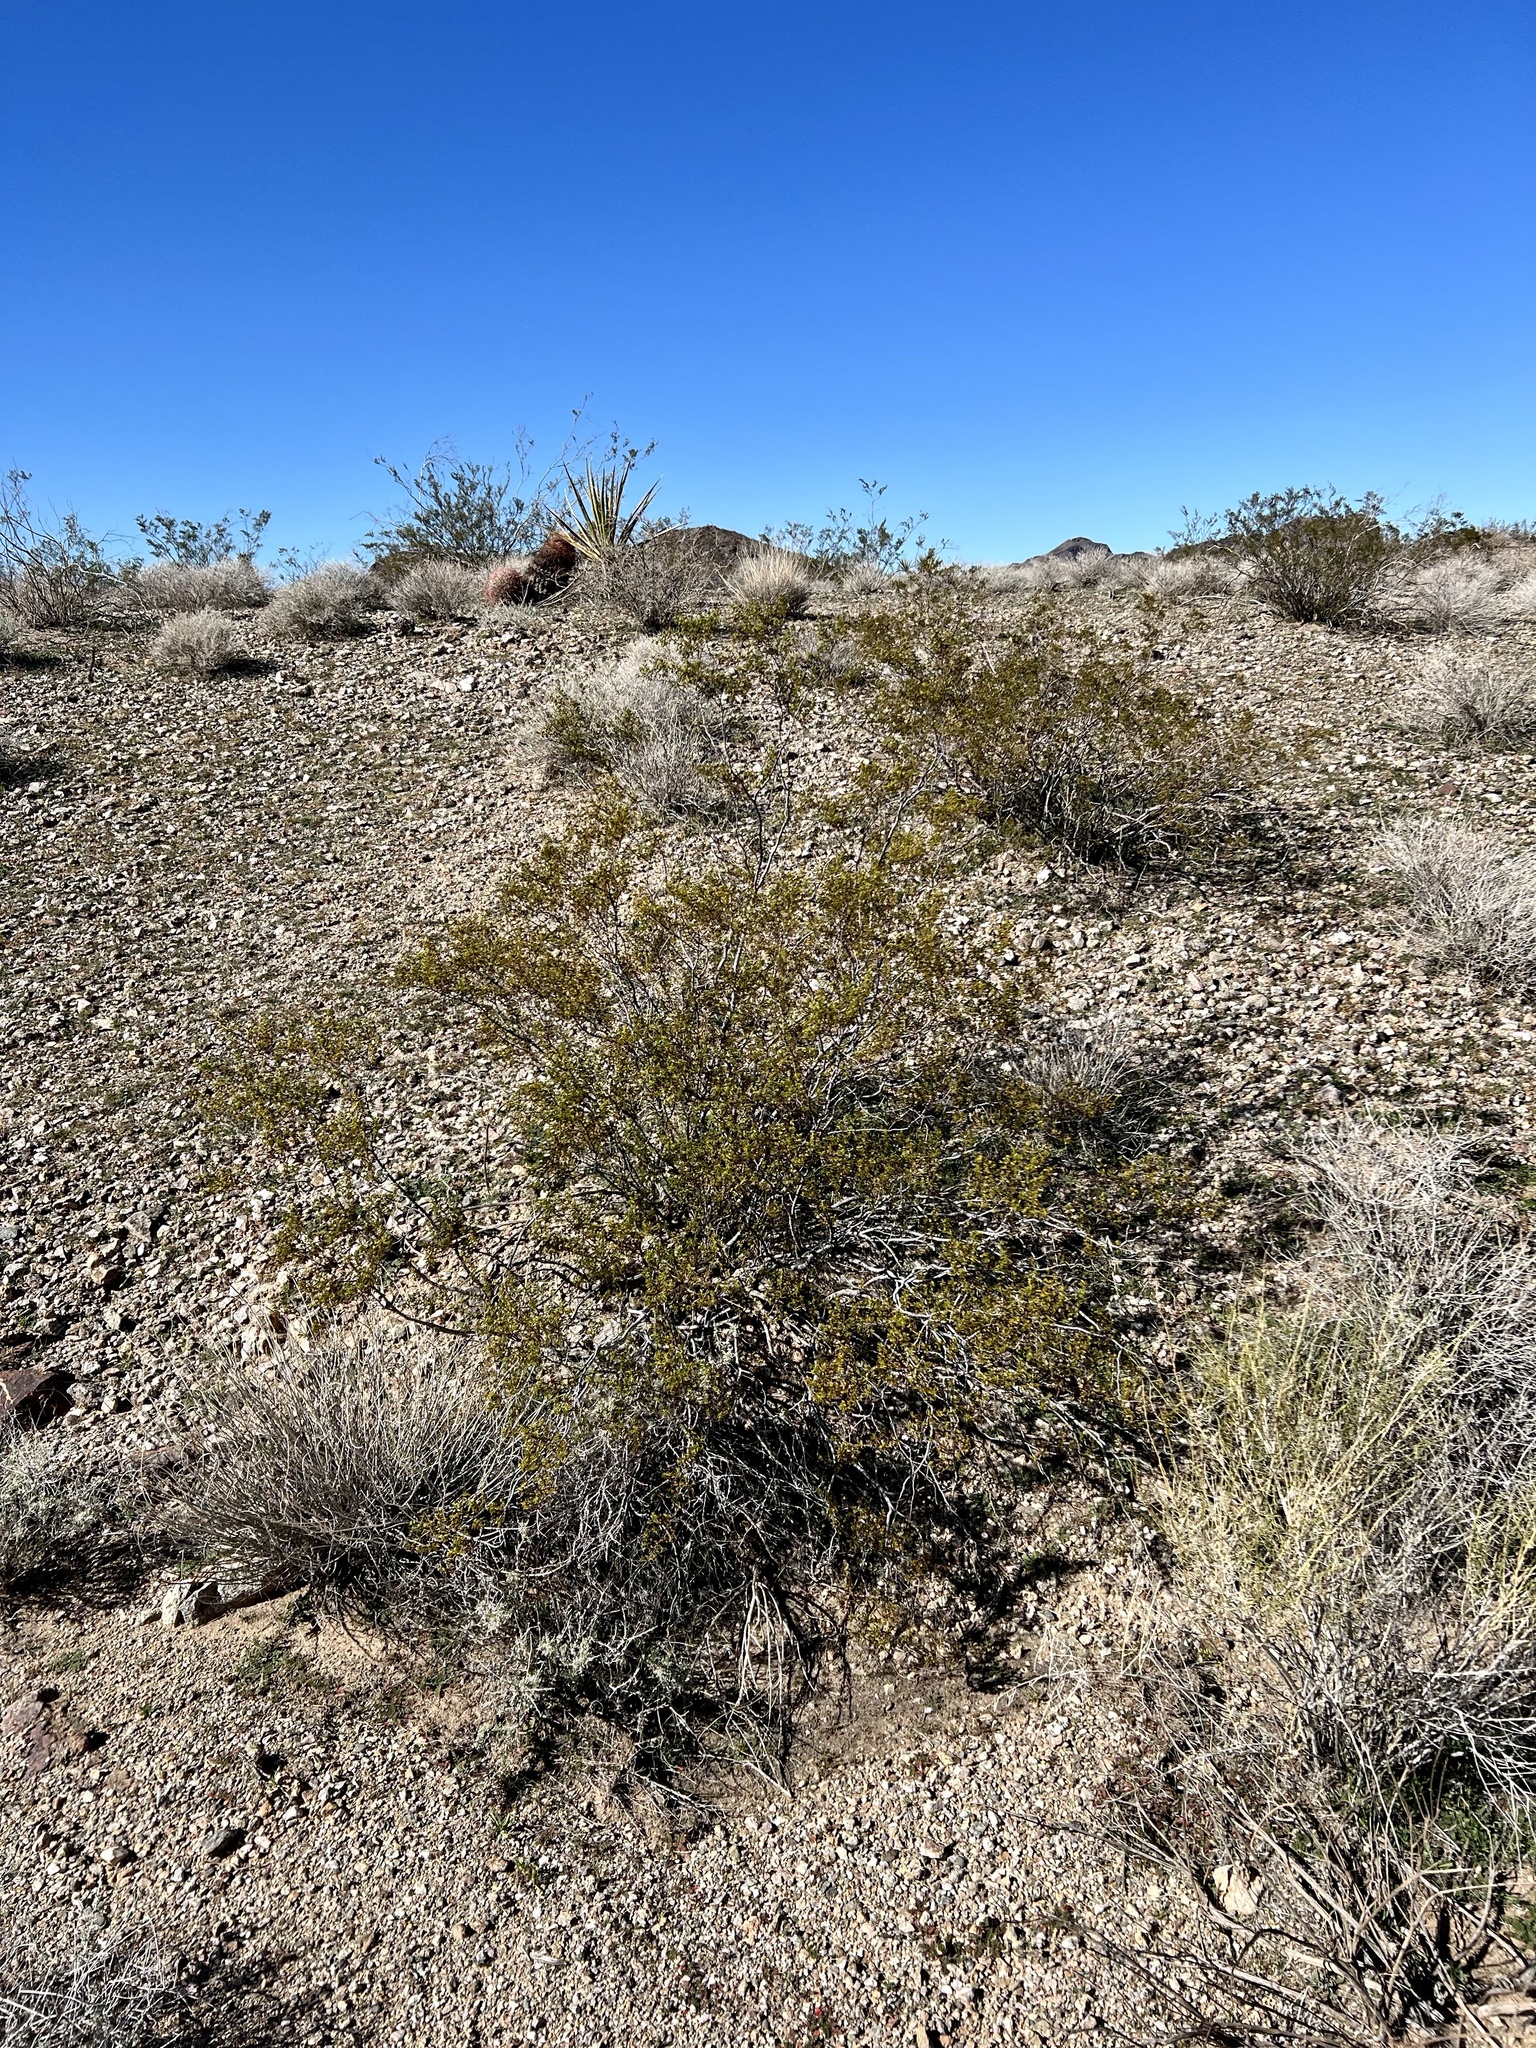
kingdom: Plantae
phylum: Tracheophyta
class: Magnoliopsida
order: Zygophyllales
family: Zygophyllaceae
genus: Larrea
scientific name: Larrea tridentata
